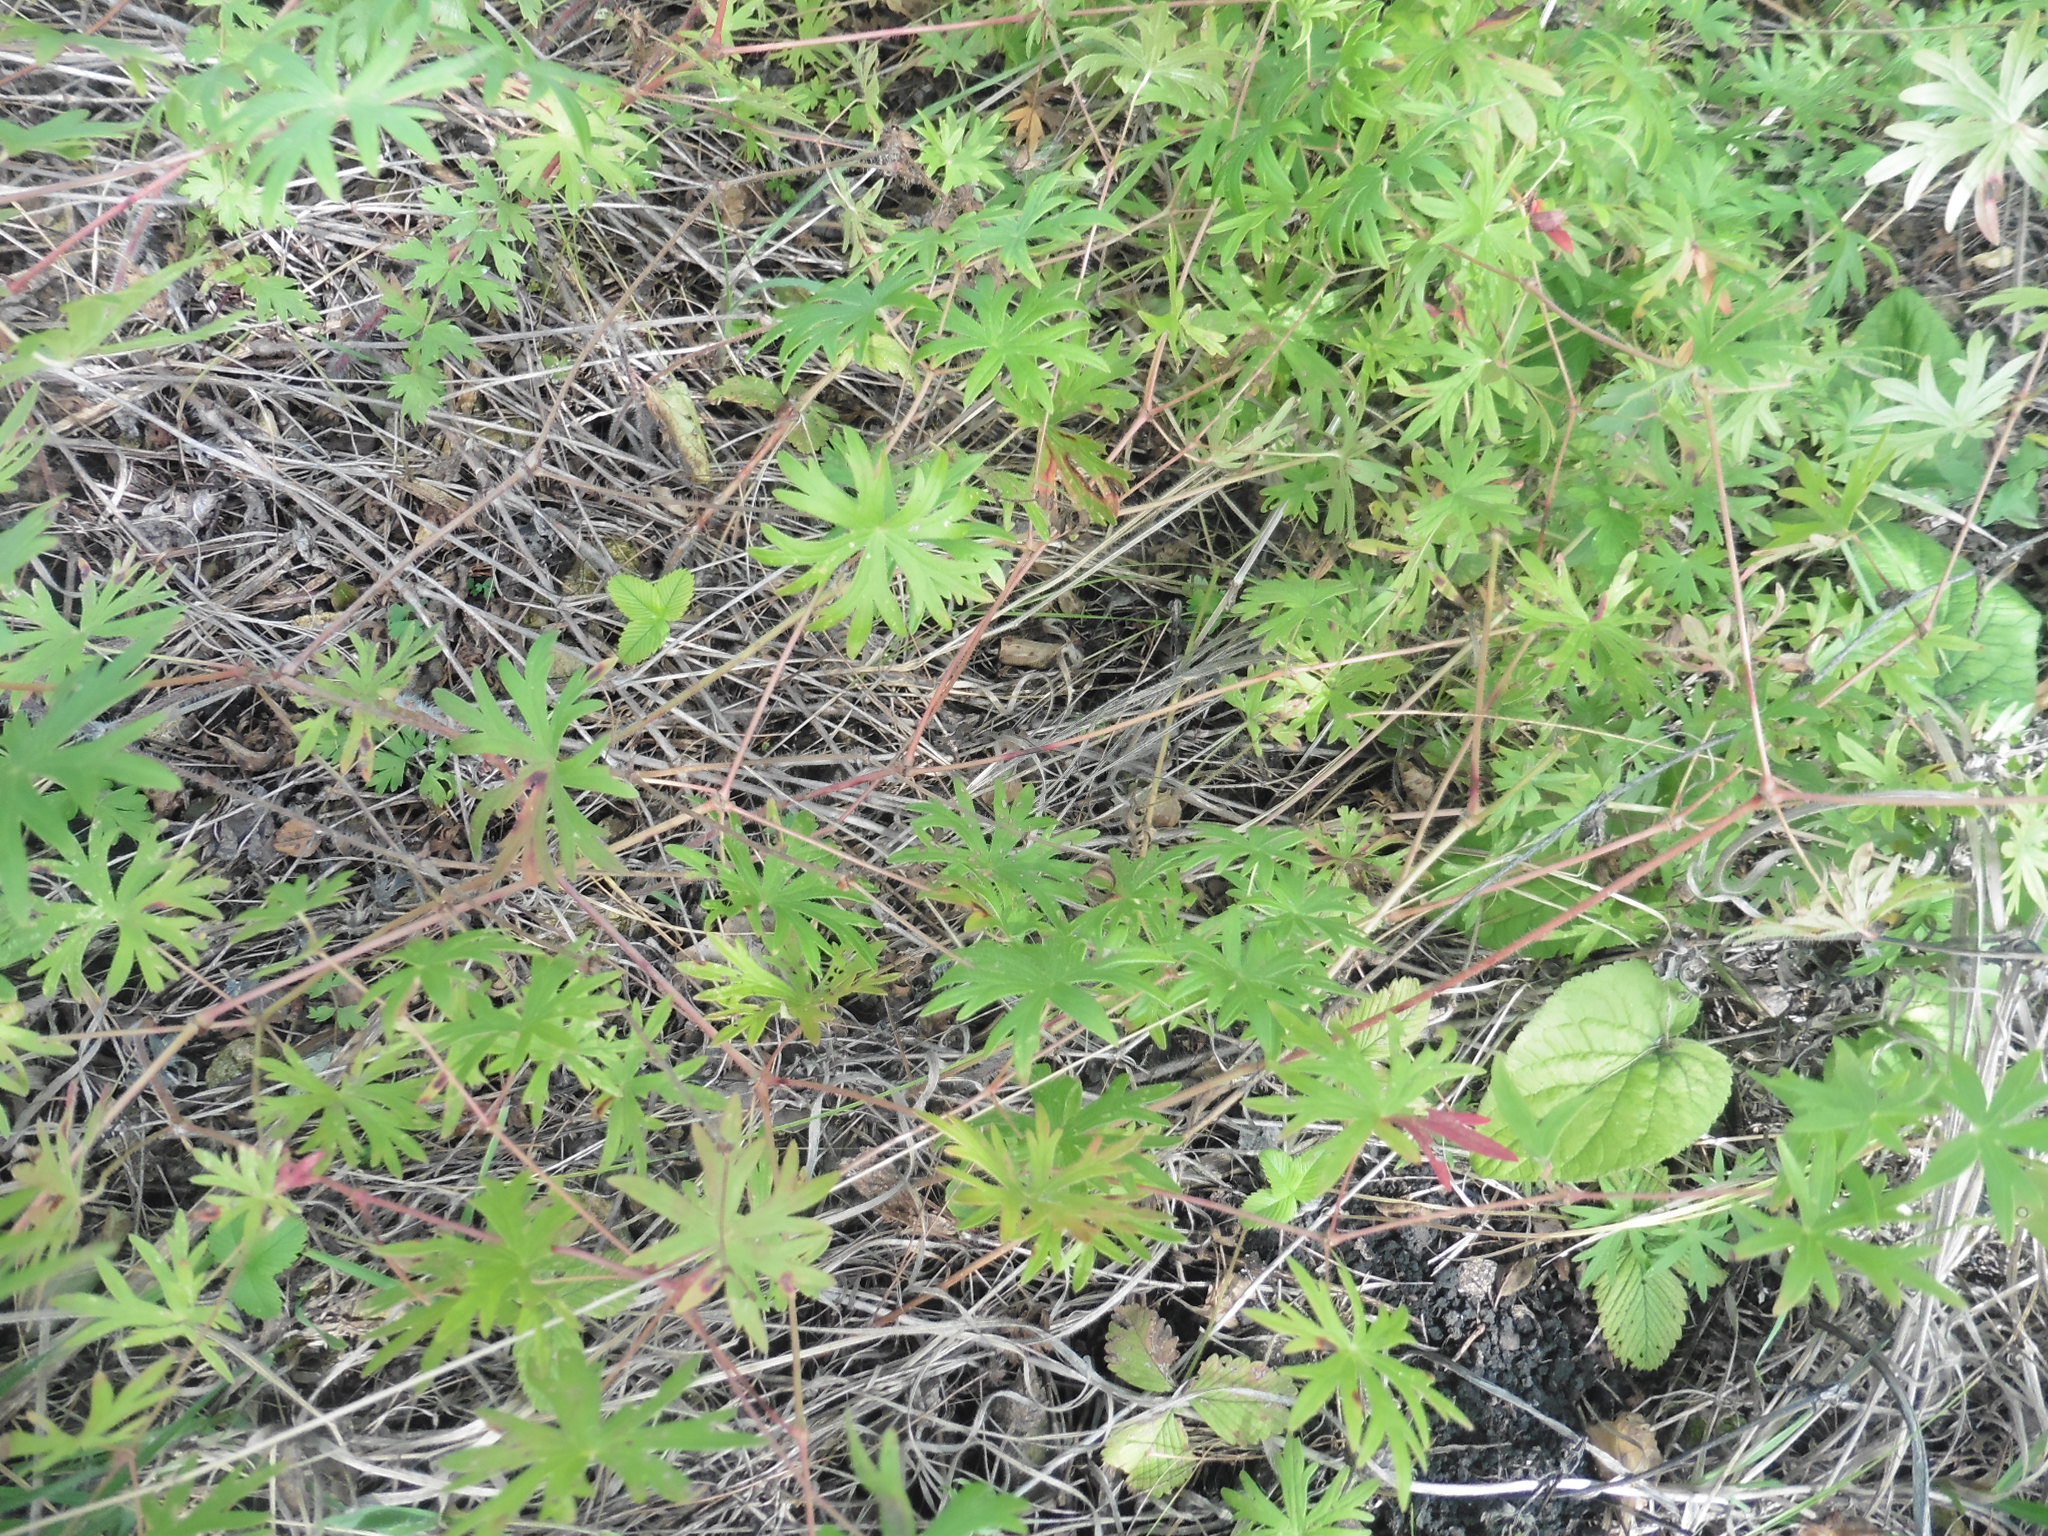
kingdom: Plantae
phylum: Tracheophyta
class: Magnoliopsida
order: Geraniales
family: Geraniaceae
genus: Geranium
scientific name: Geranium sanguineum
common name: Bloody crane's-bill
